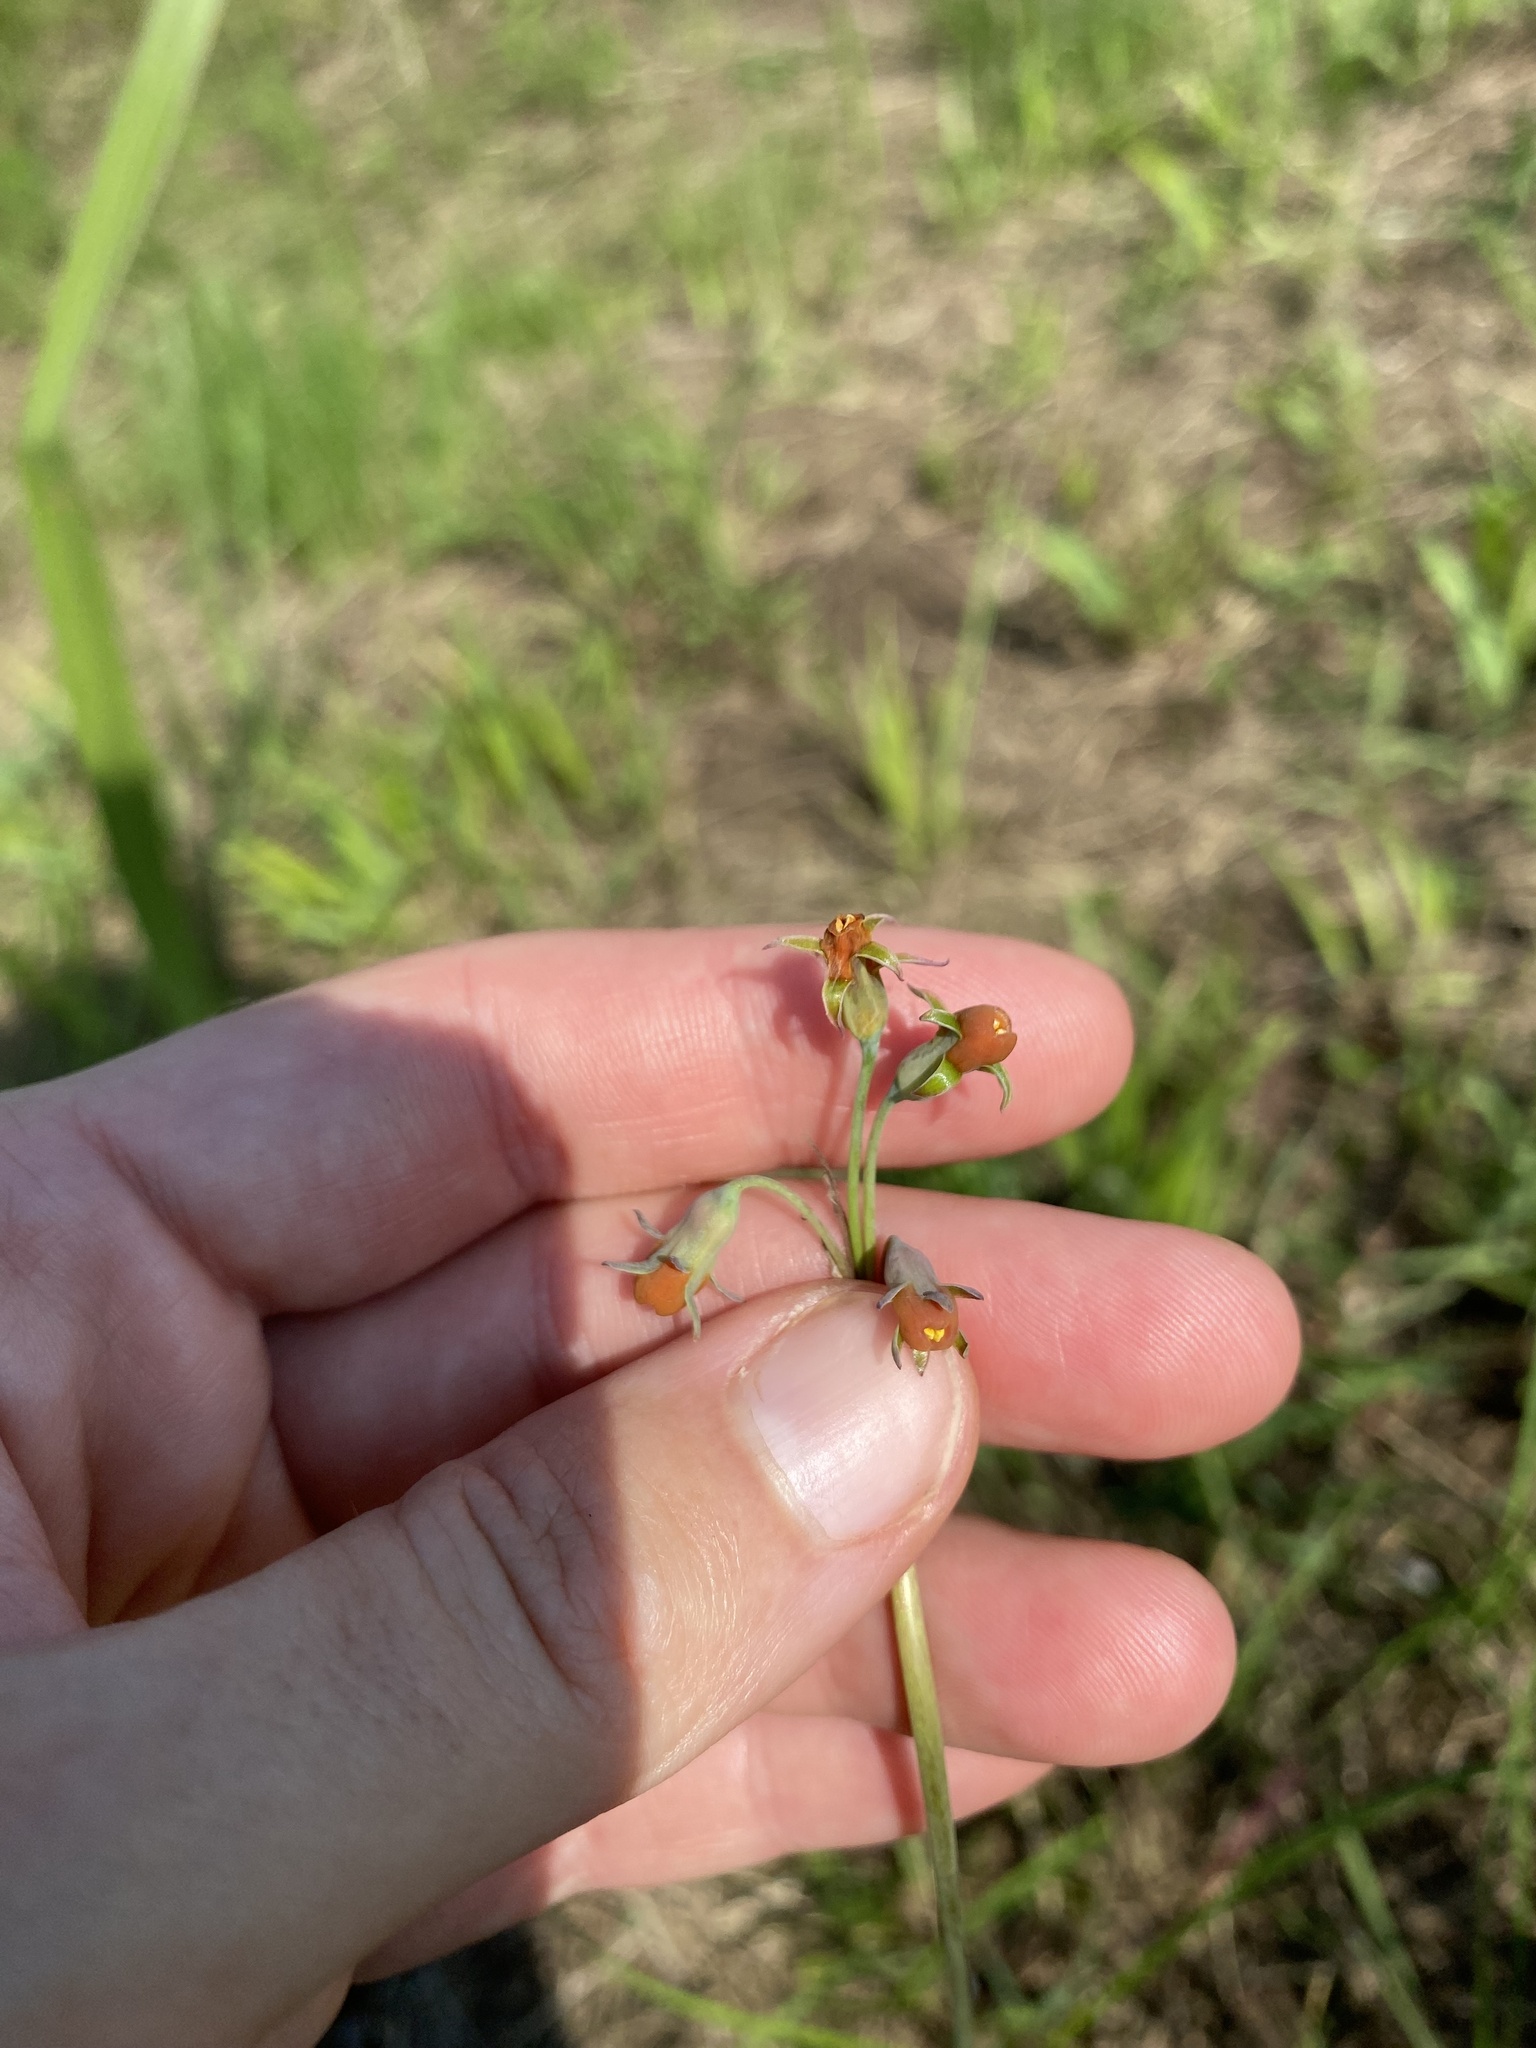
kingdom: Plantae
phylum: Tracheophyta
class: Liliopsida
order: Asparagales
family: Amaryllidaceae
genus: Tulbaghia
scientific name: Tulbaghia acutiloba
